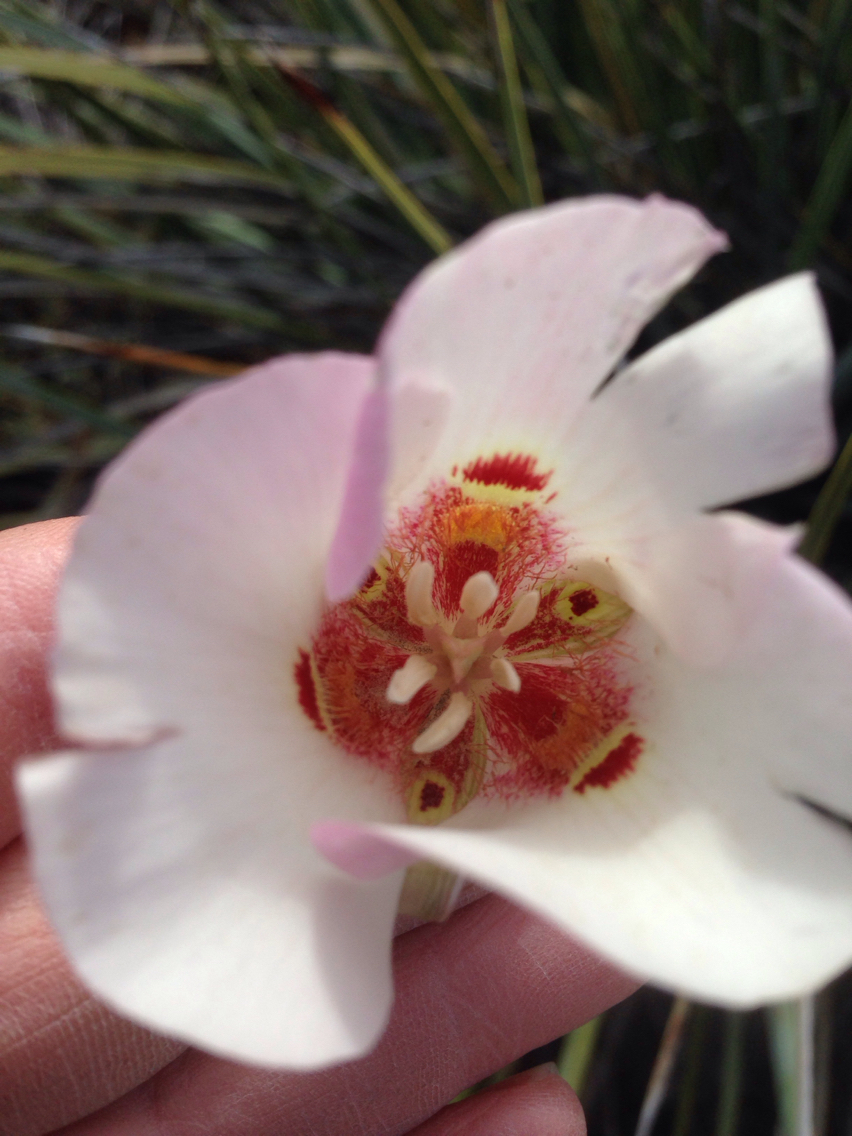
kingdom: Plantae
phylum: Tracheophyta
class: Liliopsida
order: Liliales
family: Liliaceae
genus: Calochortus
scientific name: Calochortus venustus
